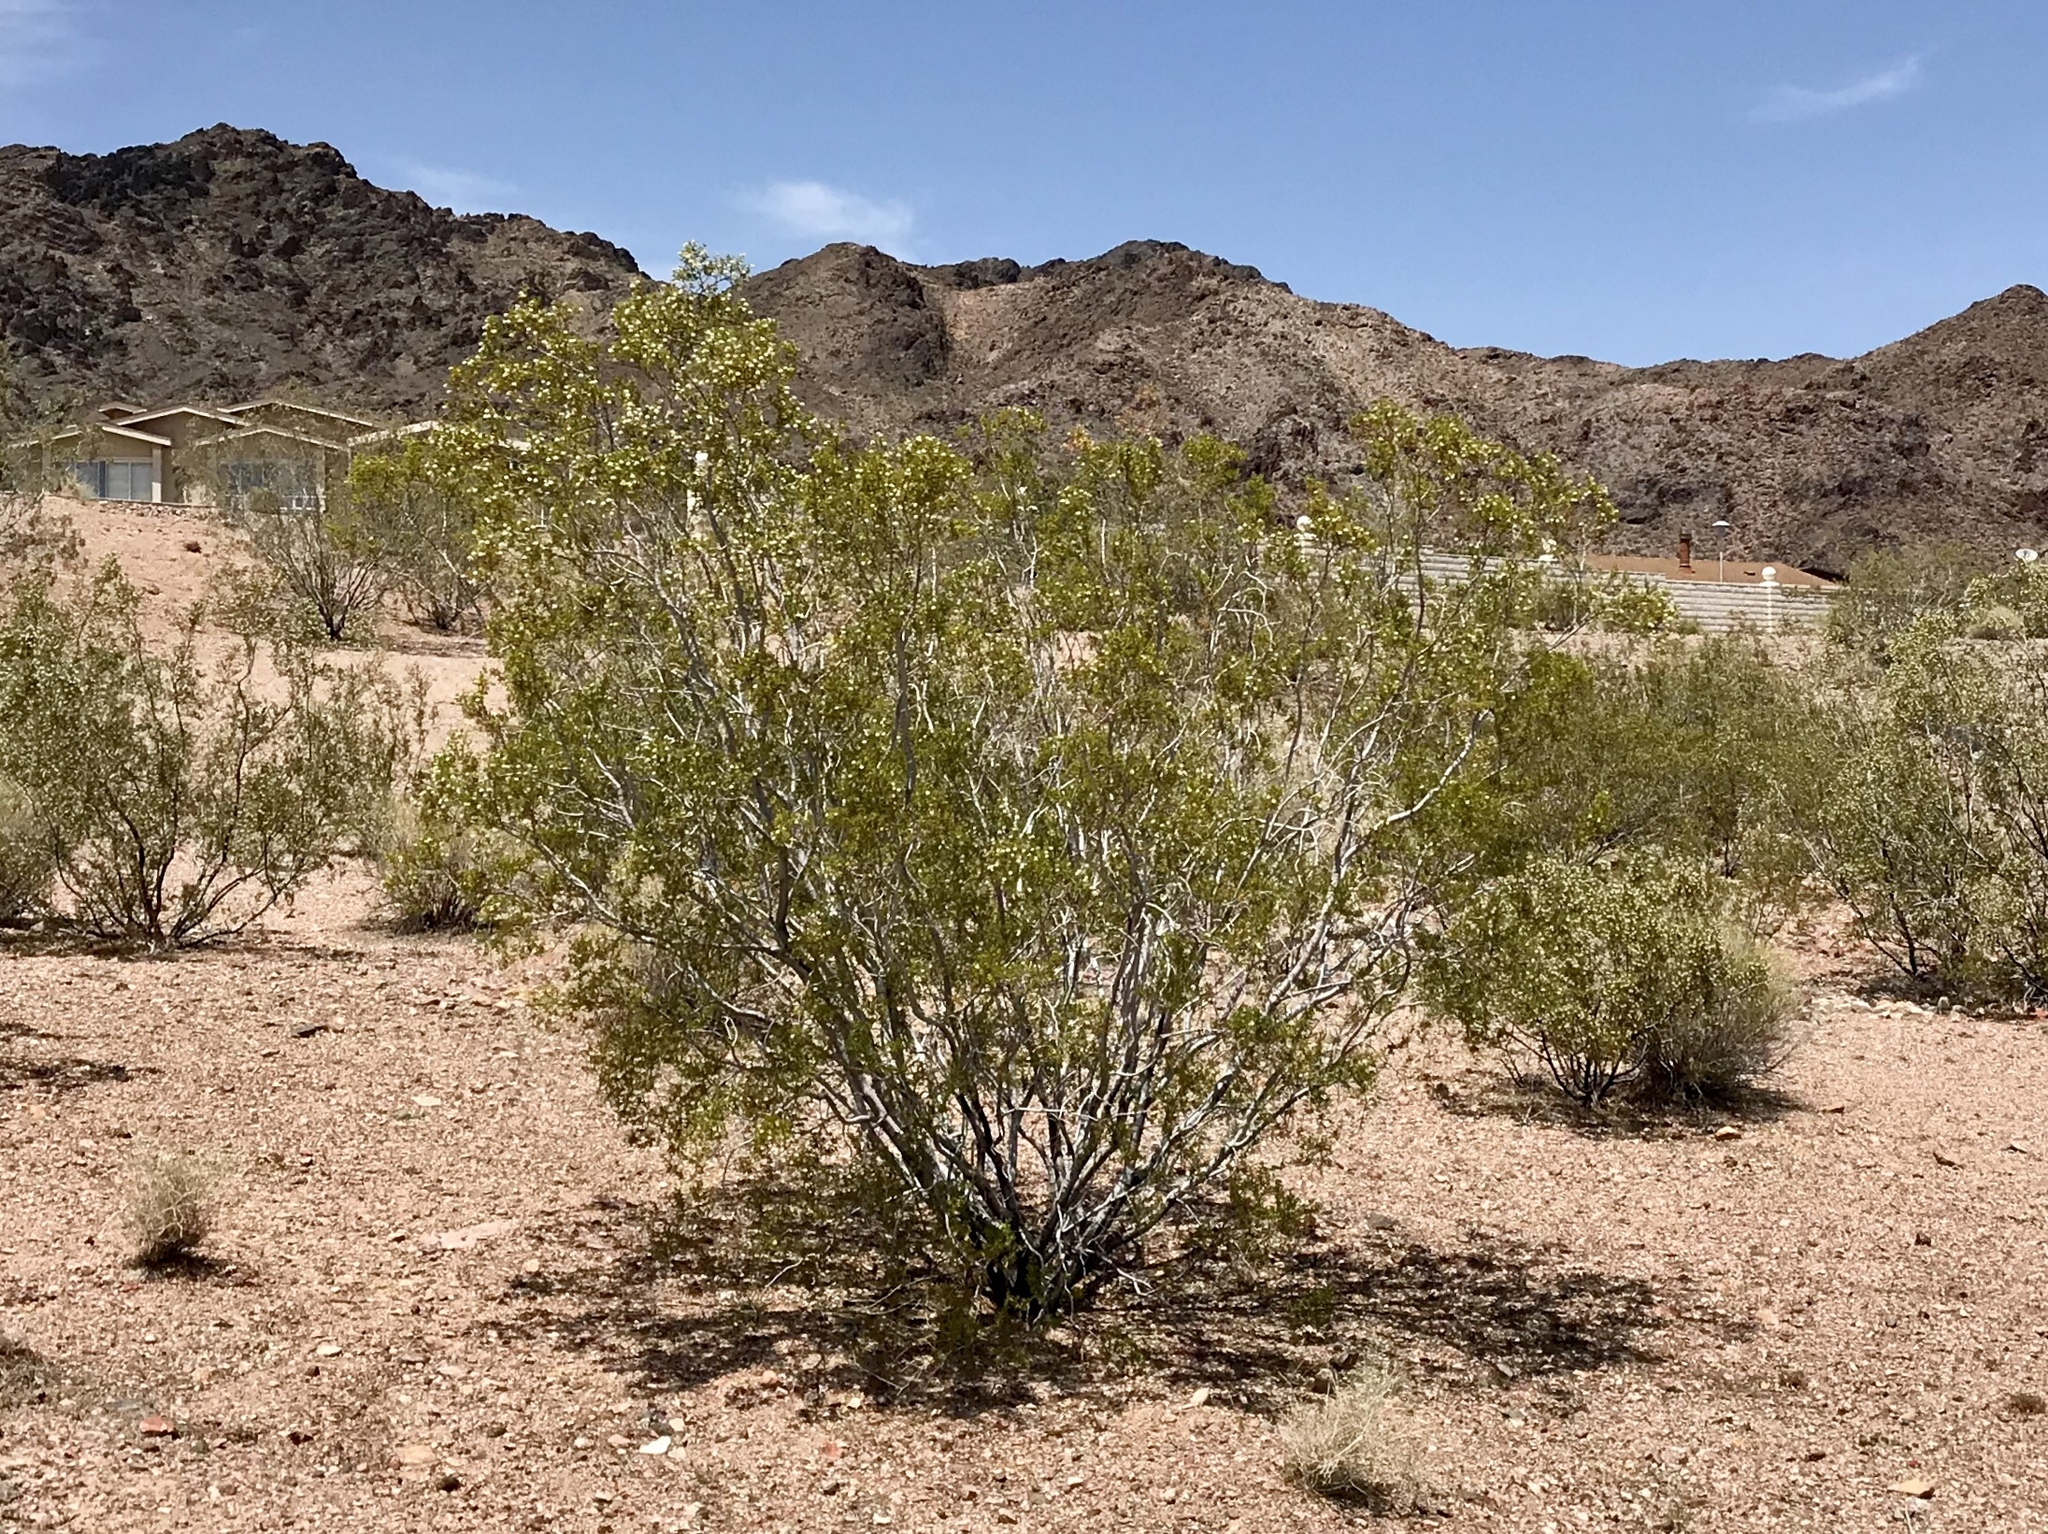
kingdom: Plantae
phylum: Tracheophyta
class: Magnoliopsida
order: Zygophyllales
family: Zygophyllaceae
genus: Larrea
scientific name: Larrea tridentata
